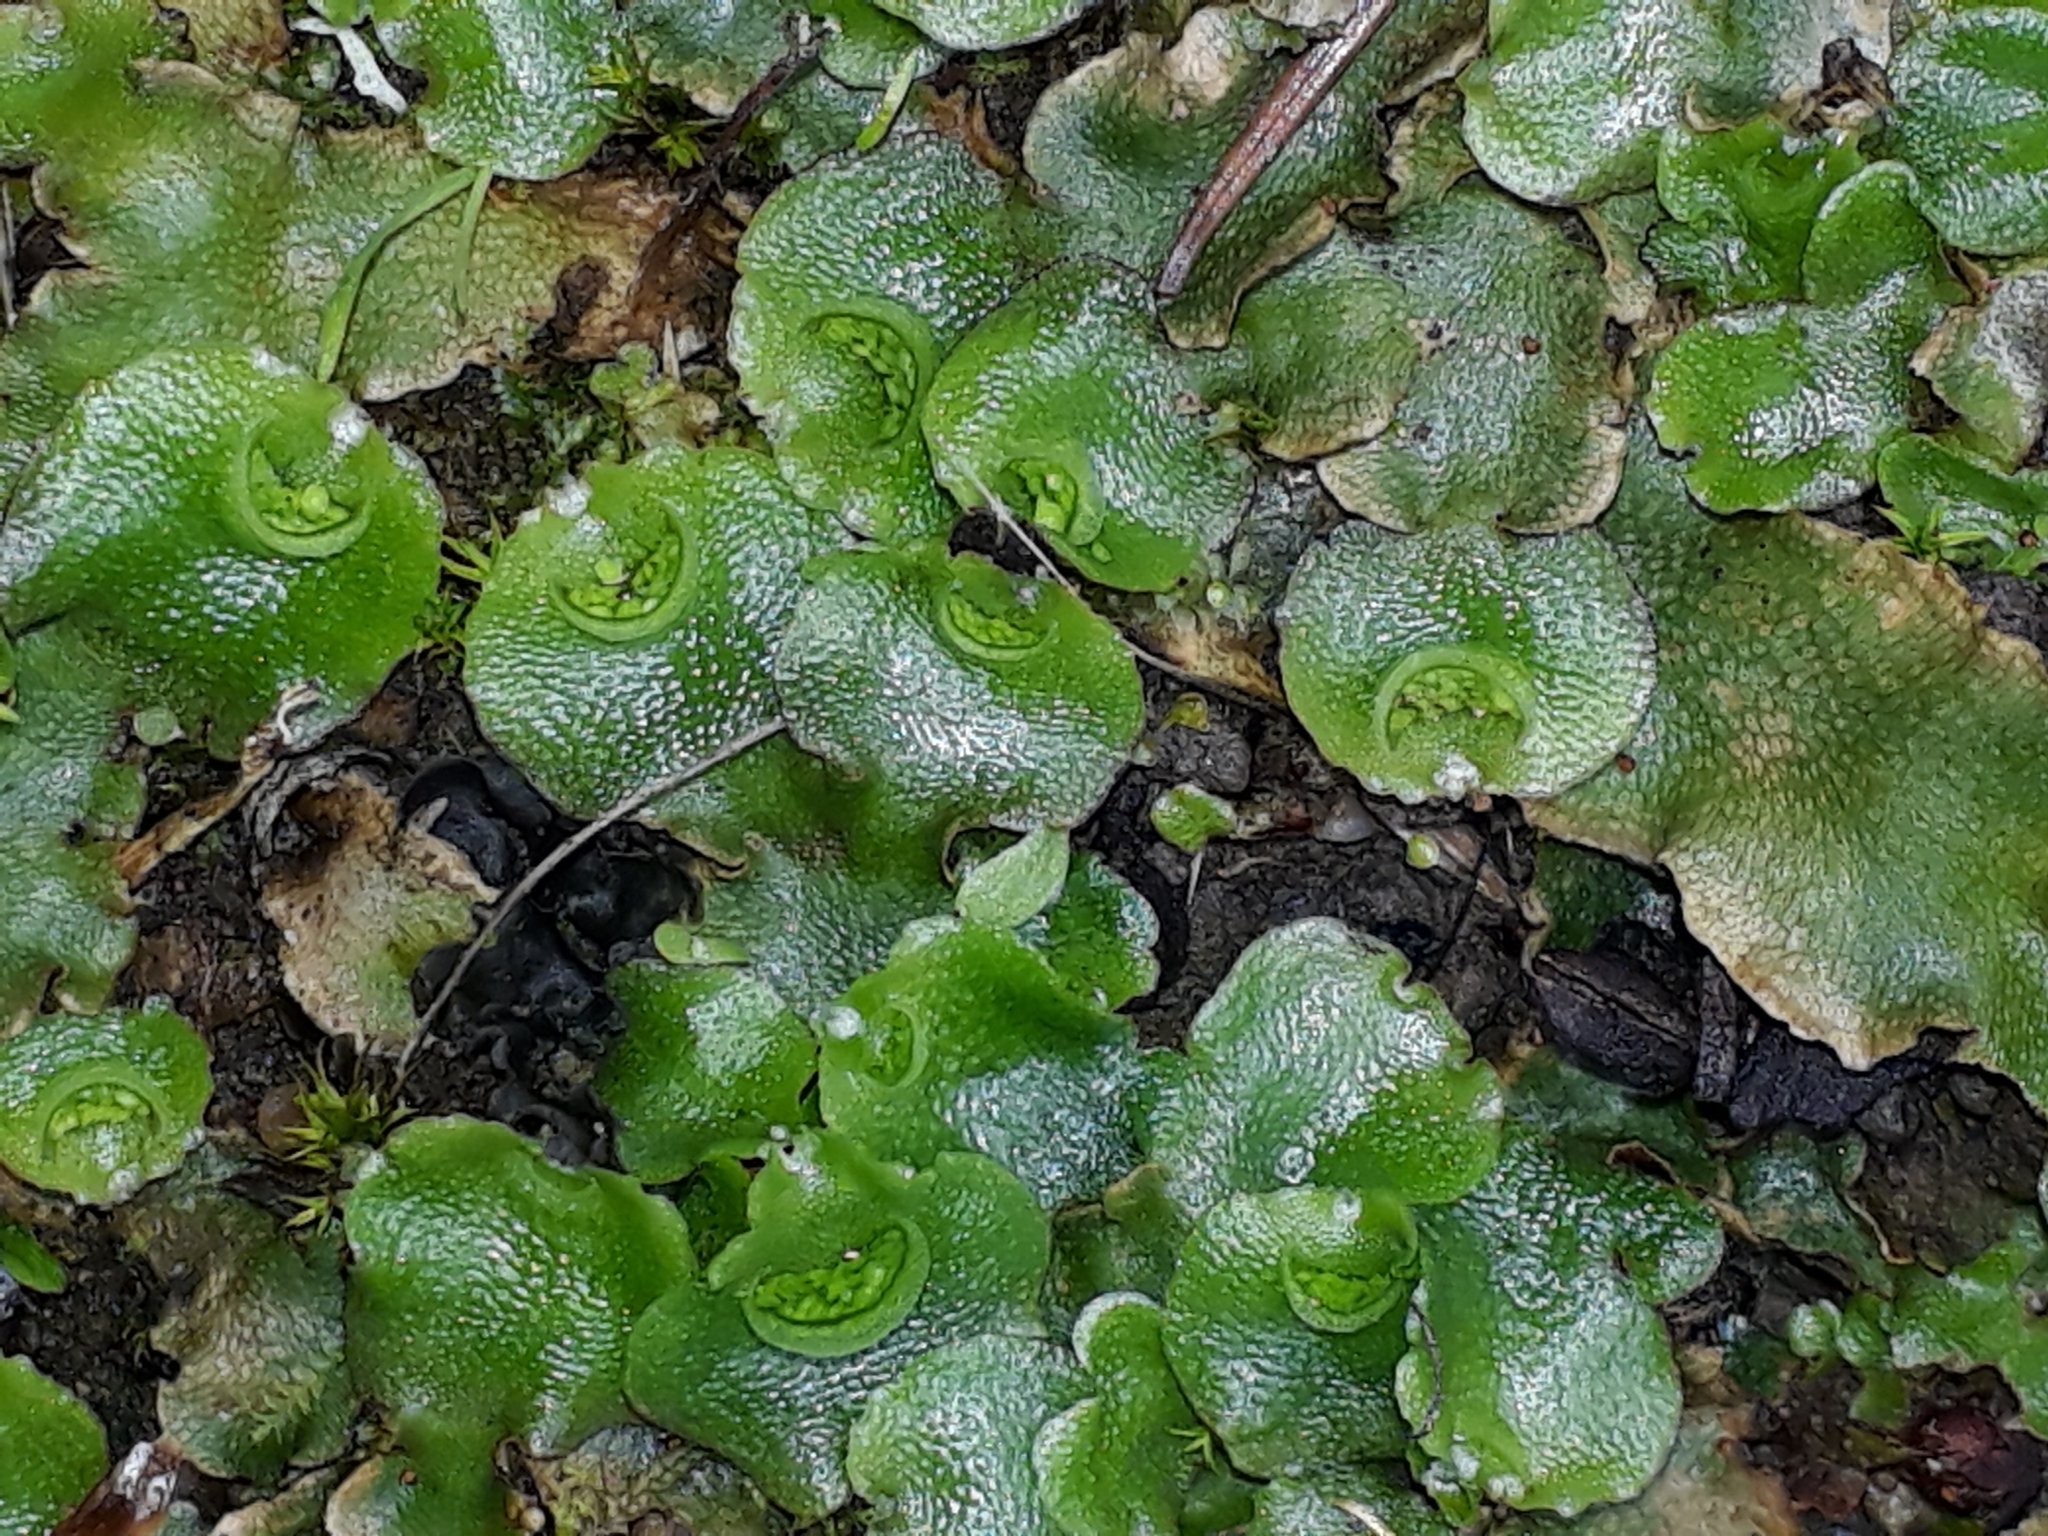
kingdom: Plantae
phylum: Marchantiophyta
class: Marchantiopsida
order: Lunulariales
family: Lunulariaceae
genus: Lunularia
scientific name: Lunularia cruciata
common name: Crescent-cup liverwort
